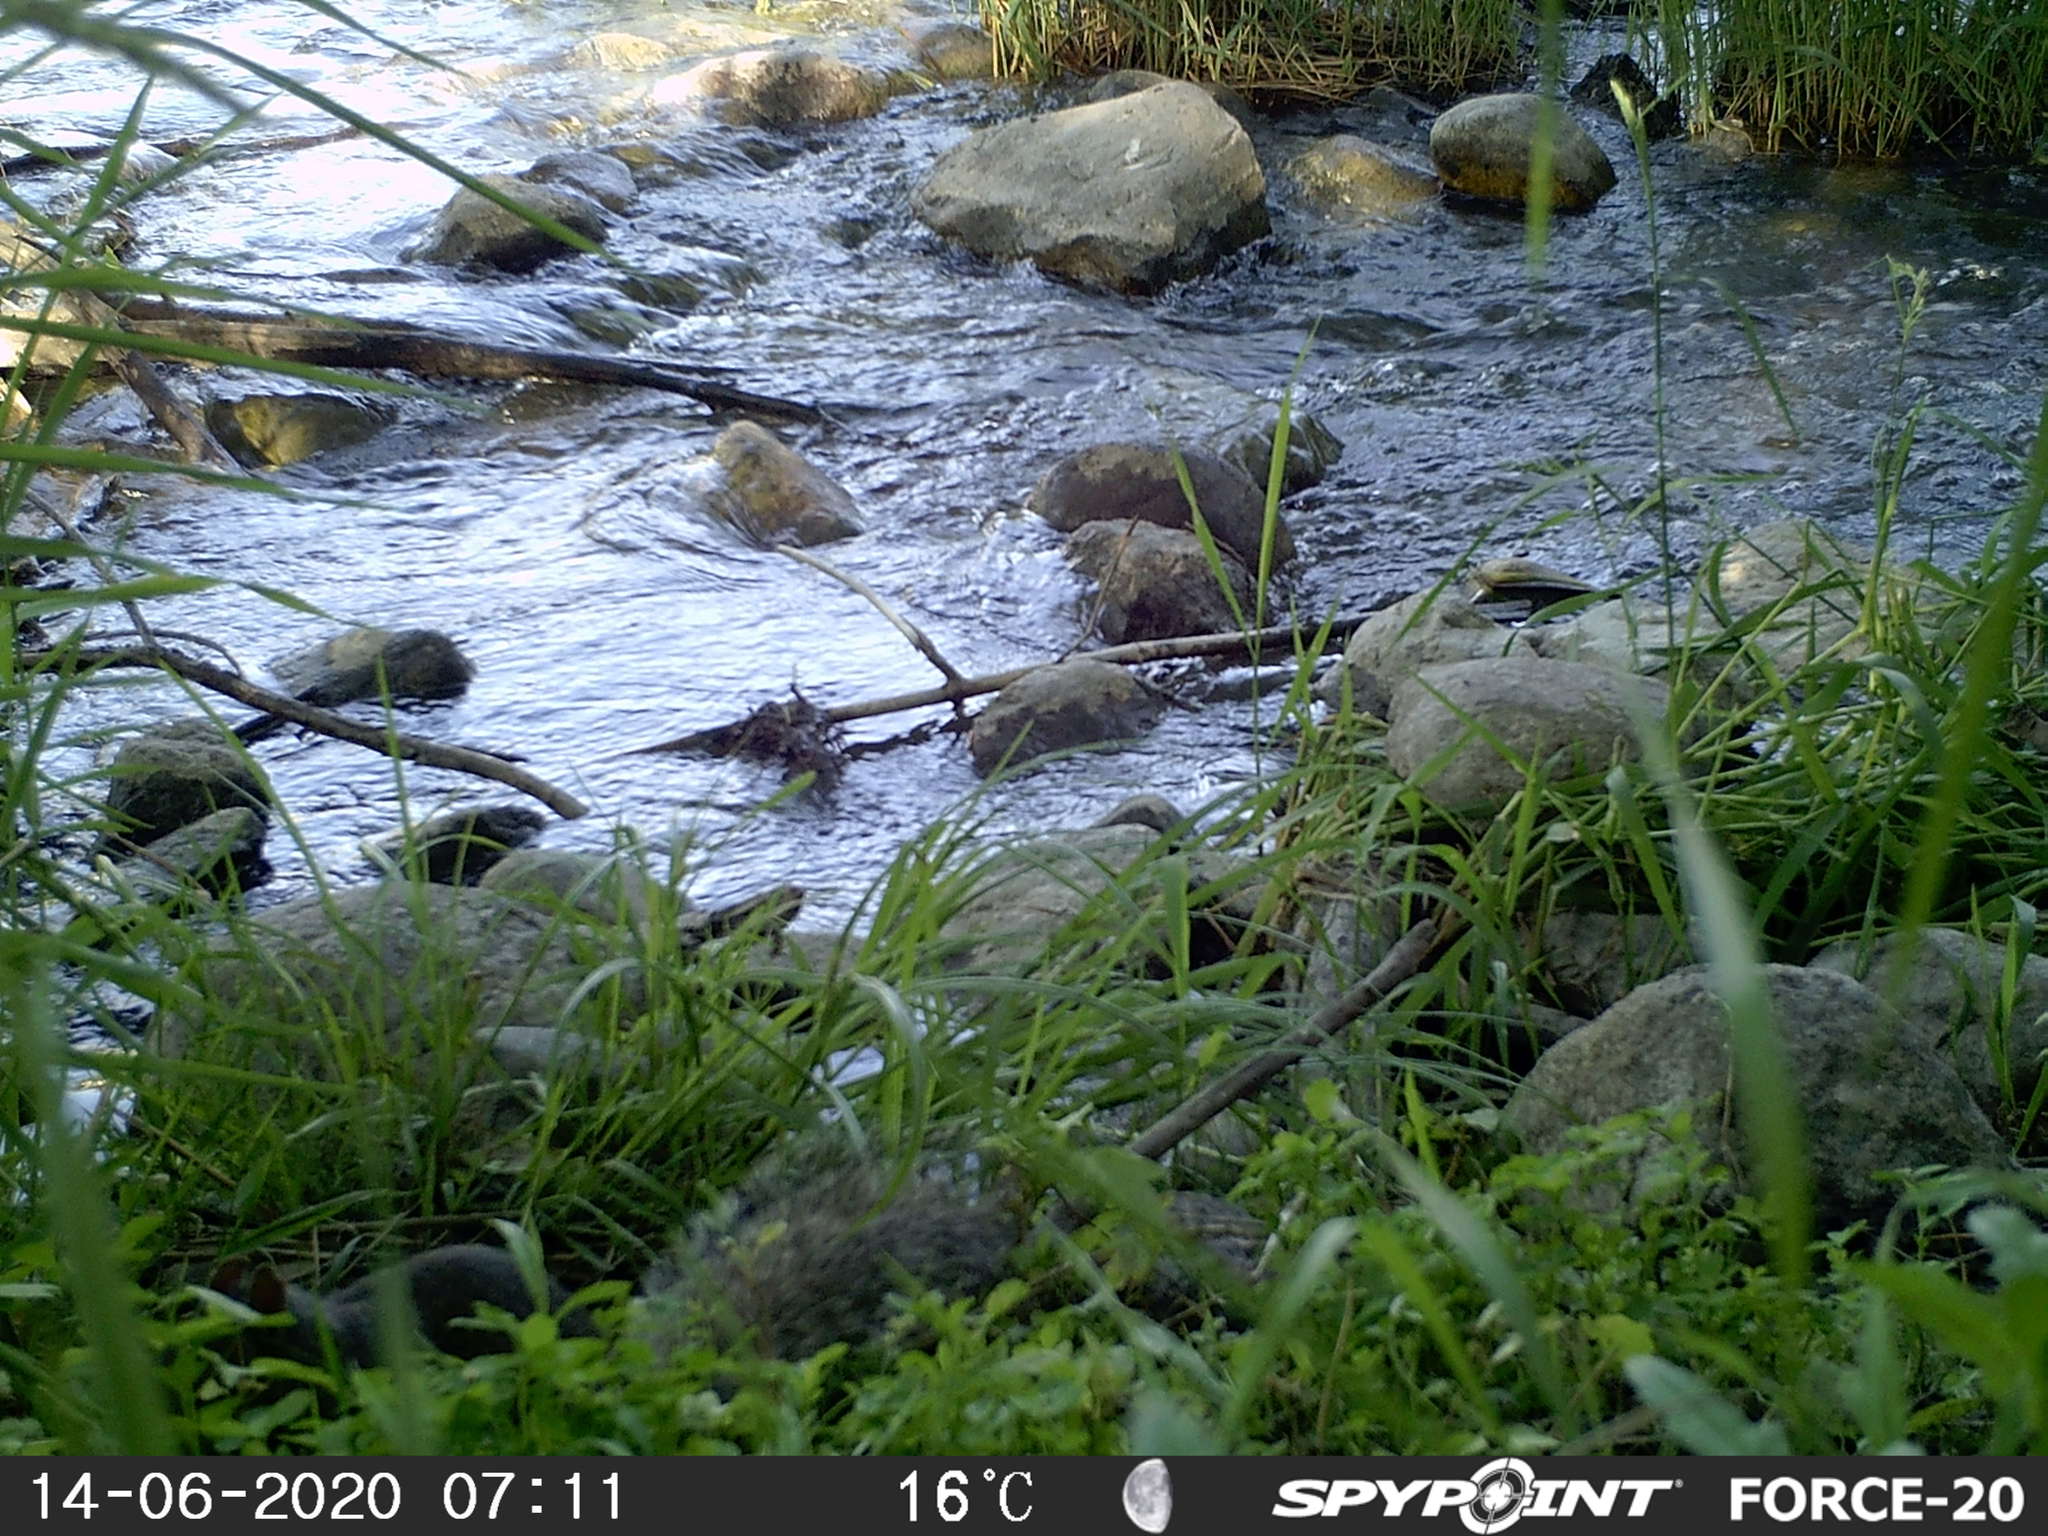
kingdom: Animalia
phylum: Chordata
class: Mammalia
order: Rodentia
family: Sciuridae
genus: Sciurus
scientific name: Sciurus carolinensis
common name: Eastern gray squirrel
